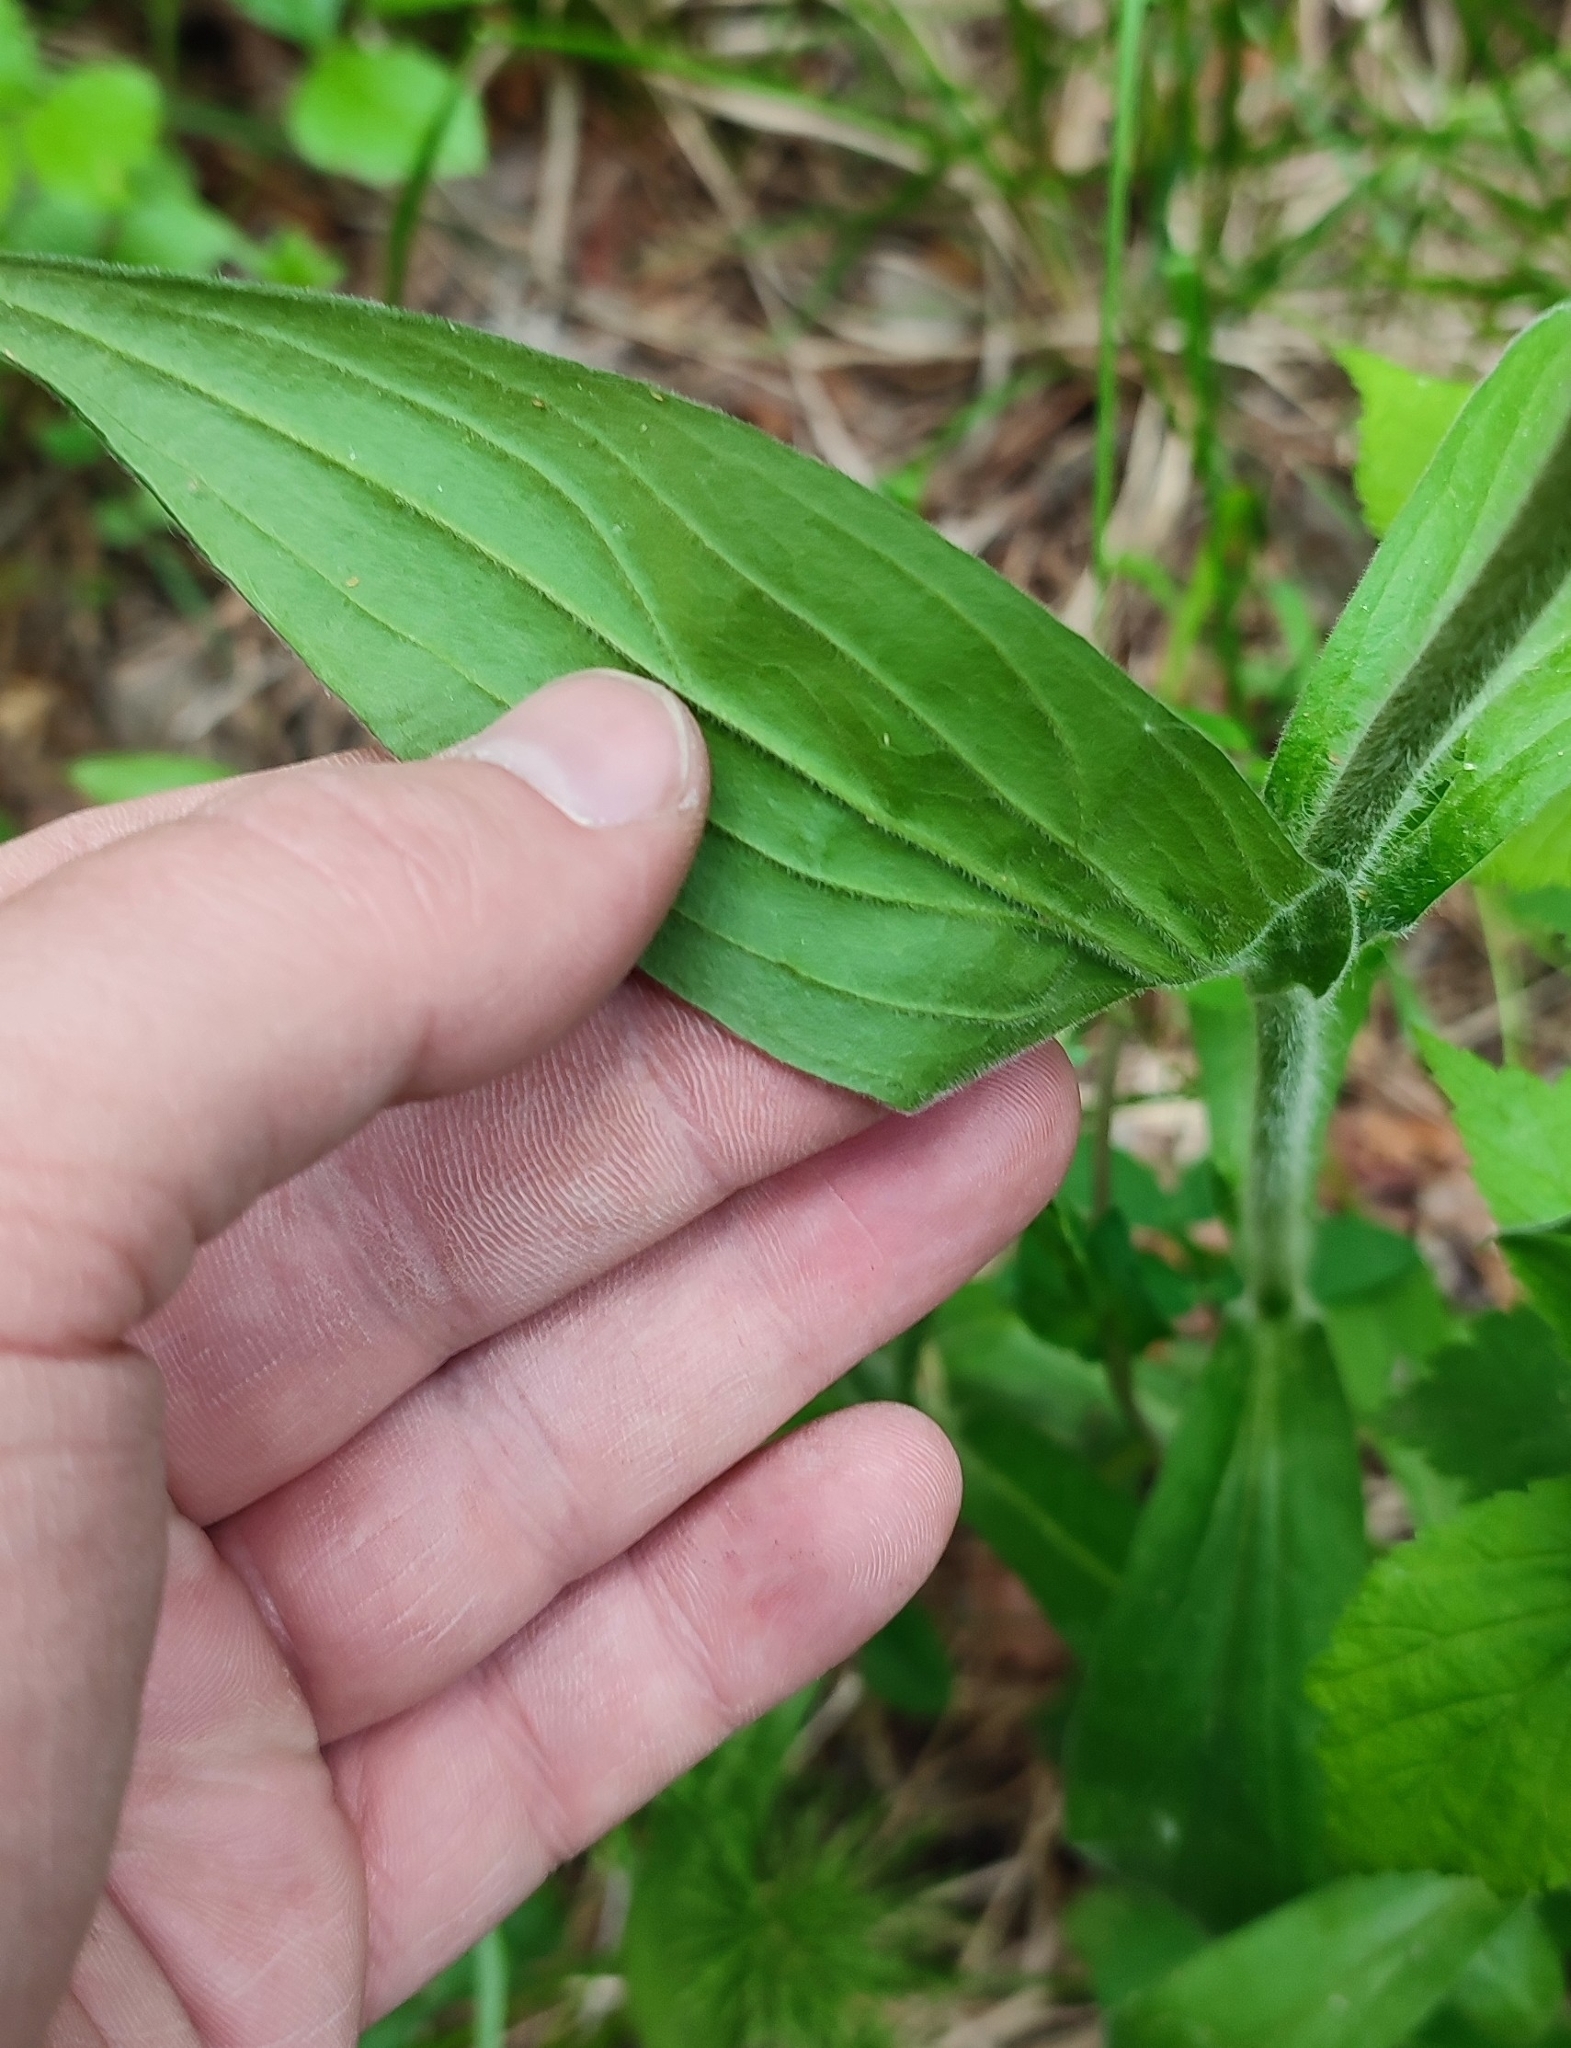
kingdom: Plantae
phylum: Tracheophyta
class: Magnoliopsida
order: Caryophyllales
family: Caryophyllaceae
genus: Silene
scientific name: Silene latifolia
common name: White campion
